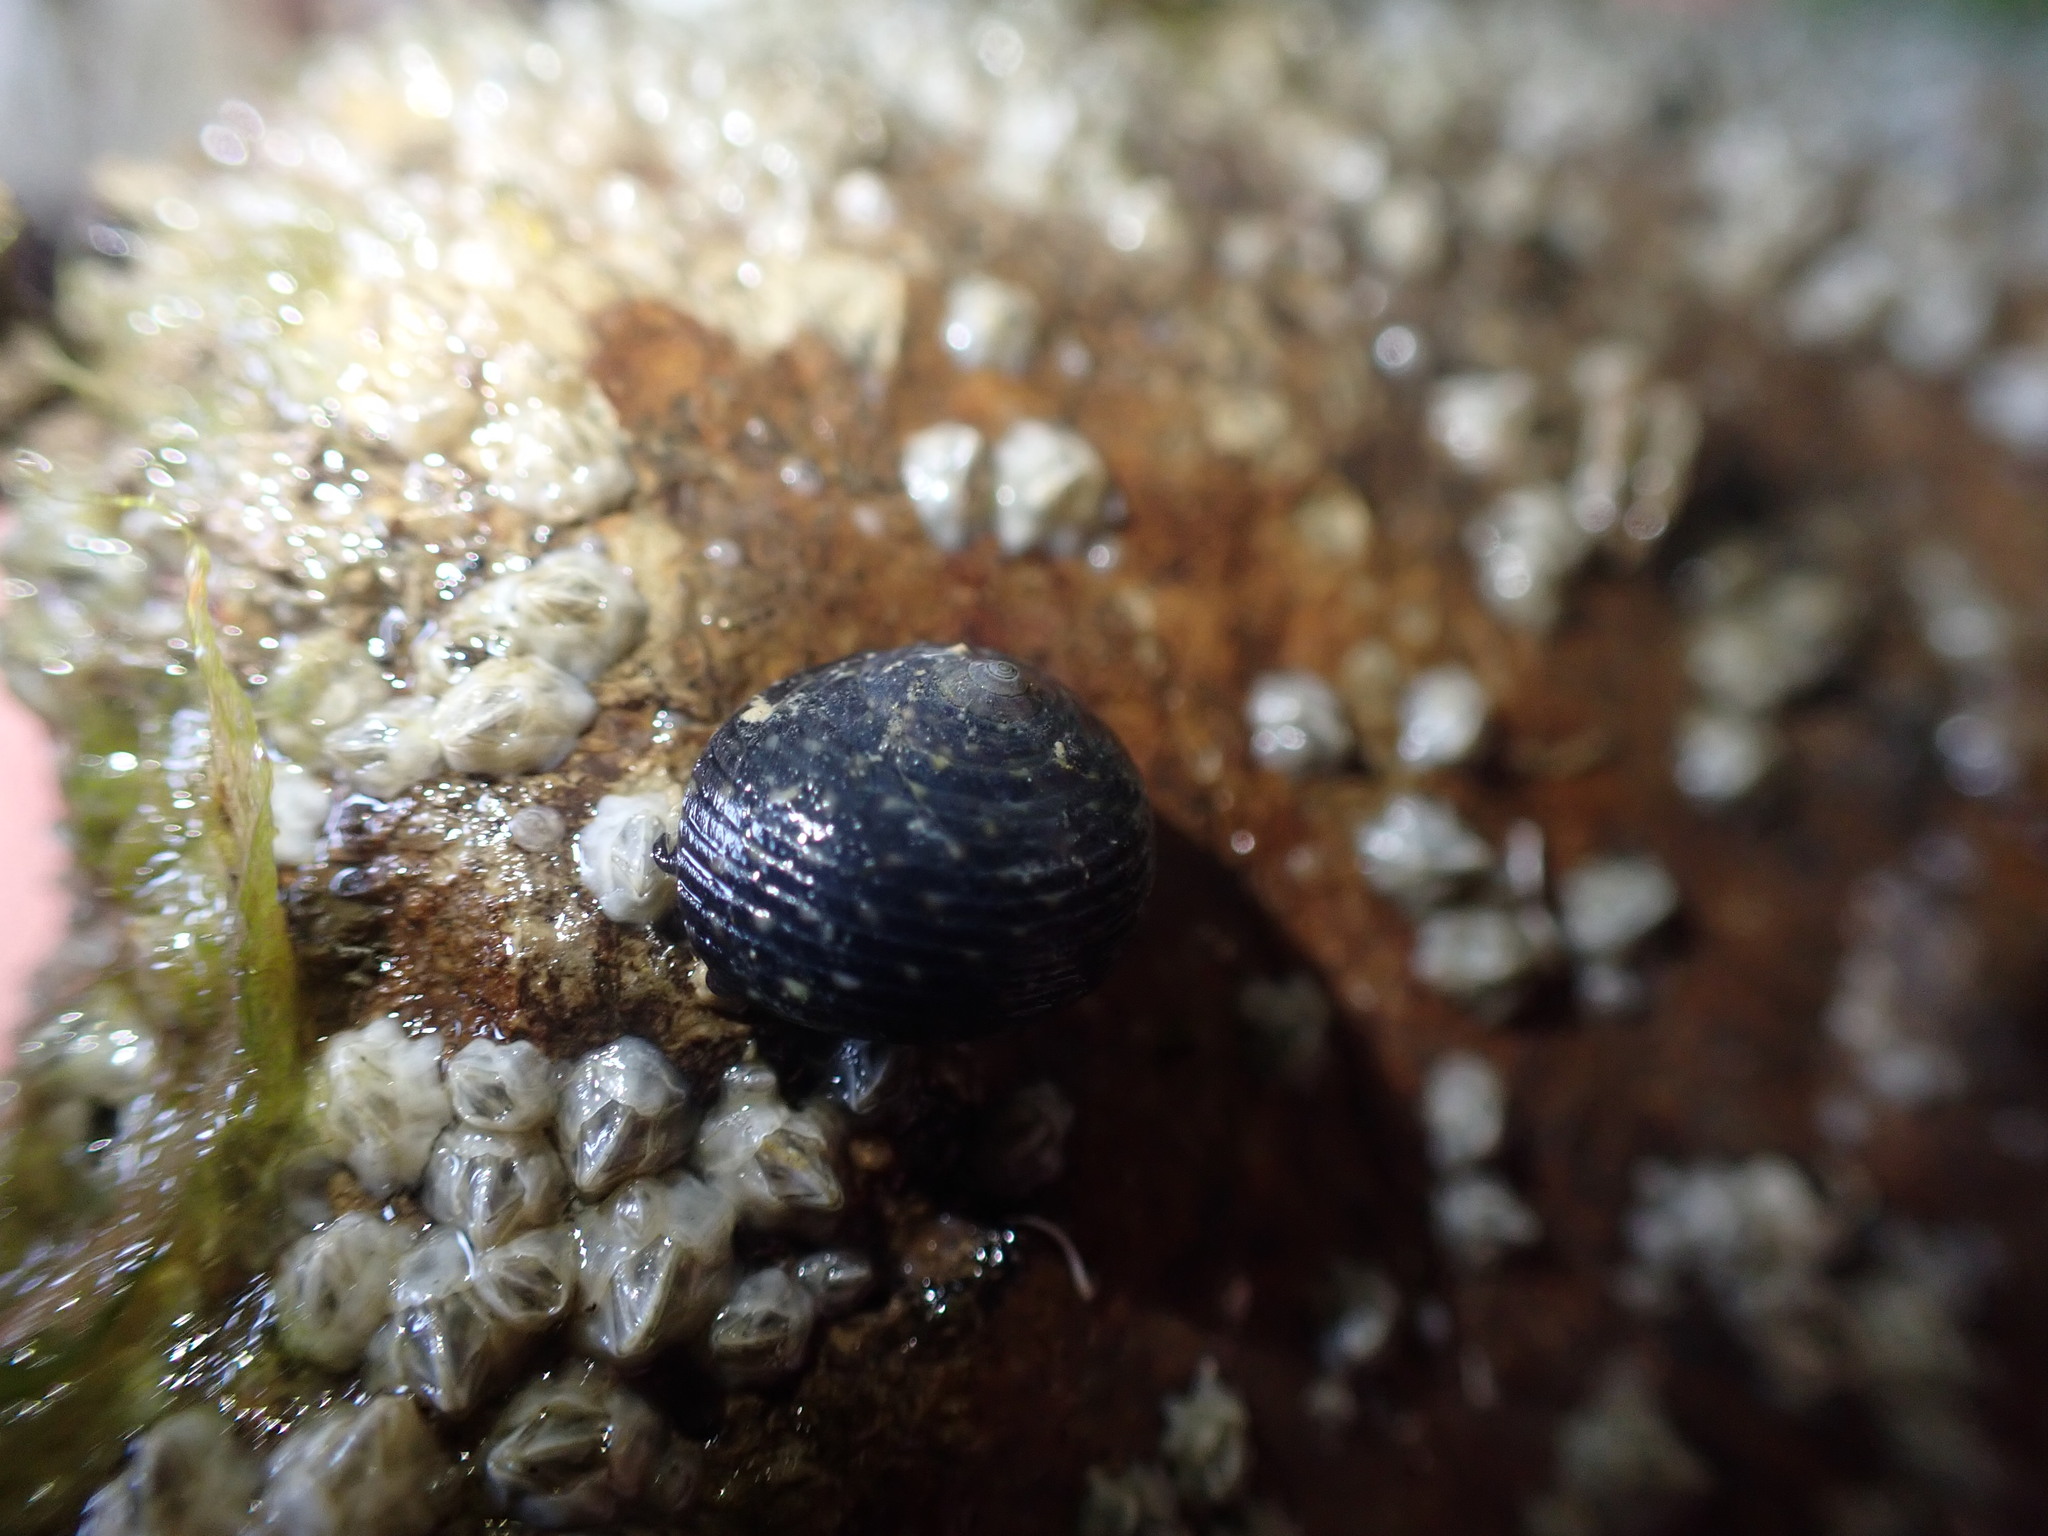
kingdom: Animalia
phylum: Mollusca
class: Gastropoda
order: Trochida
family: Trochidae
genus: Diloma
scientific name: Diloma zelandicum
